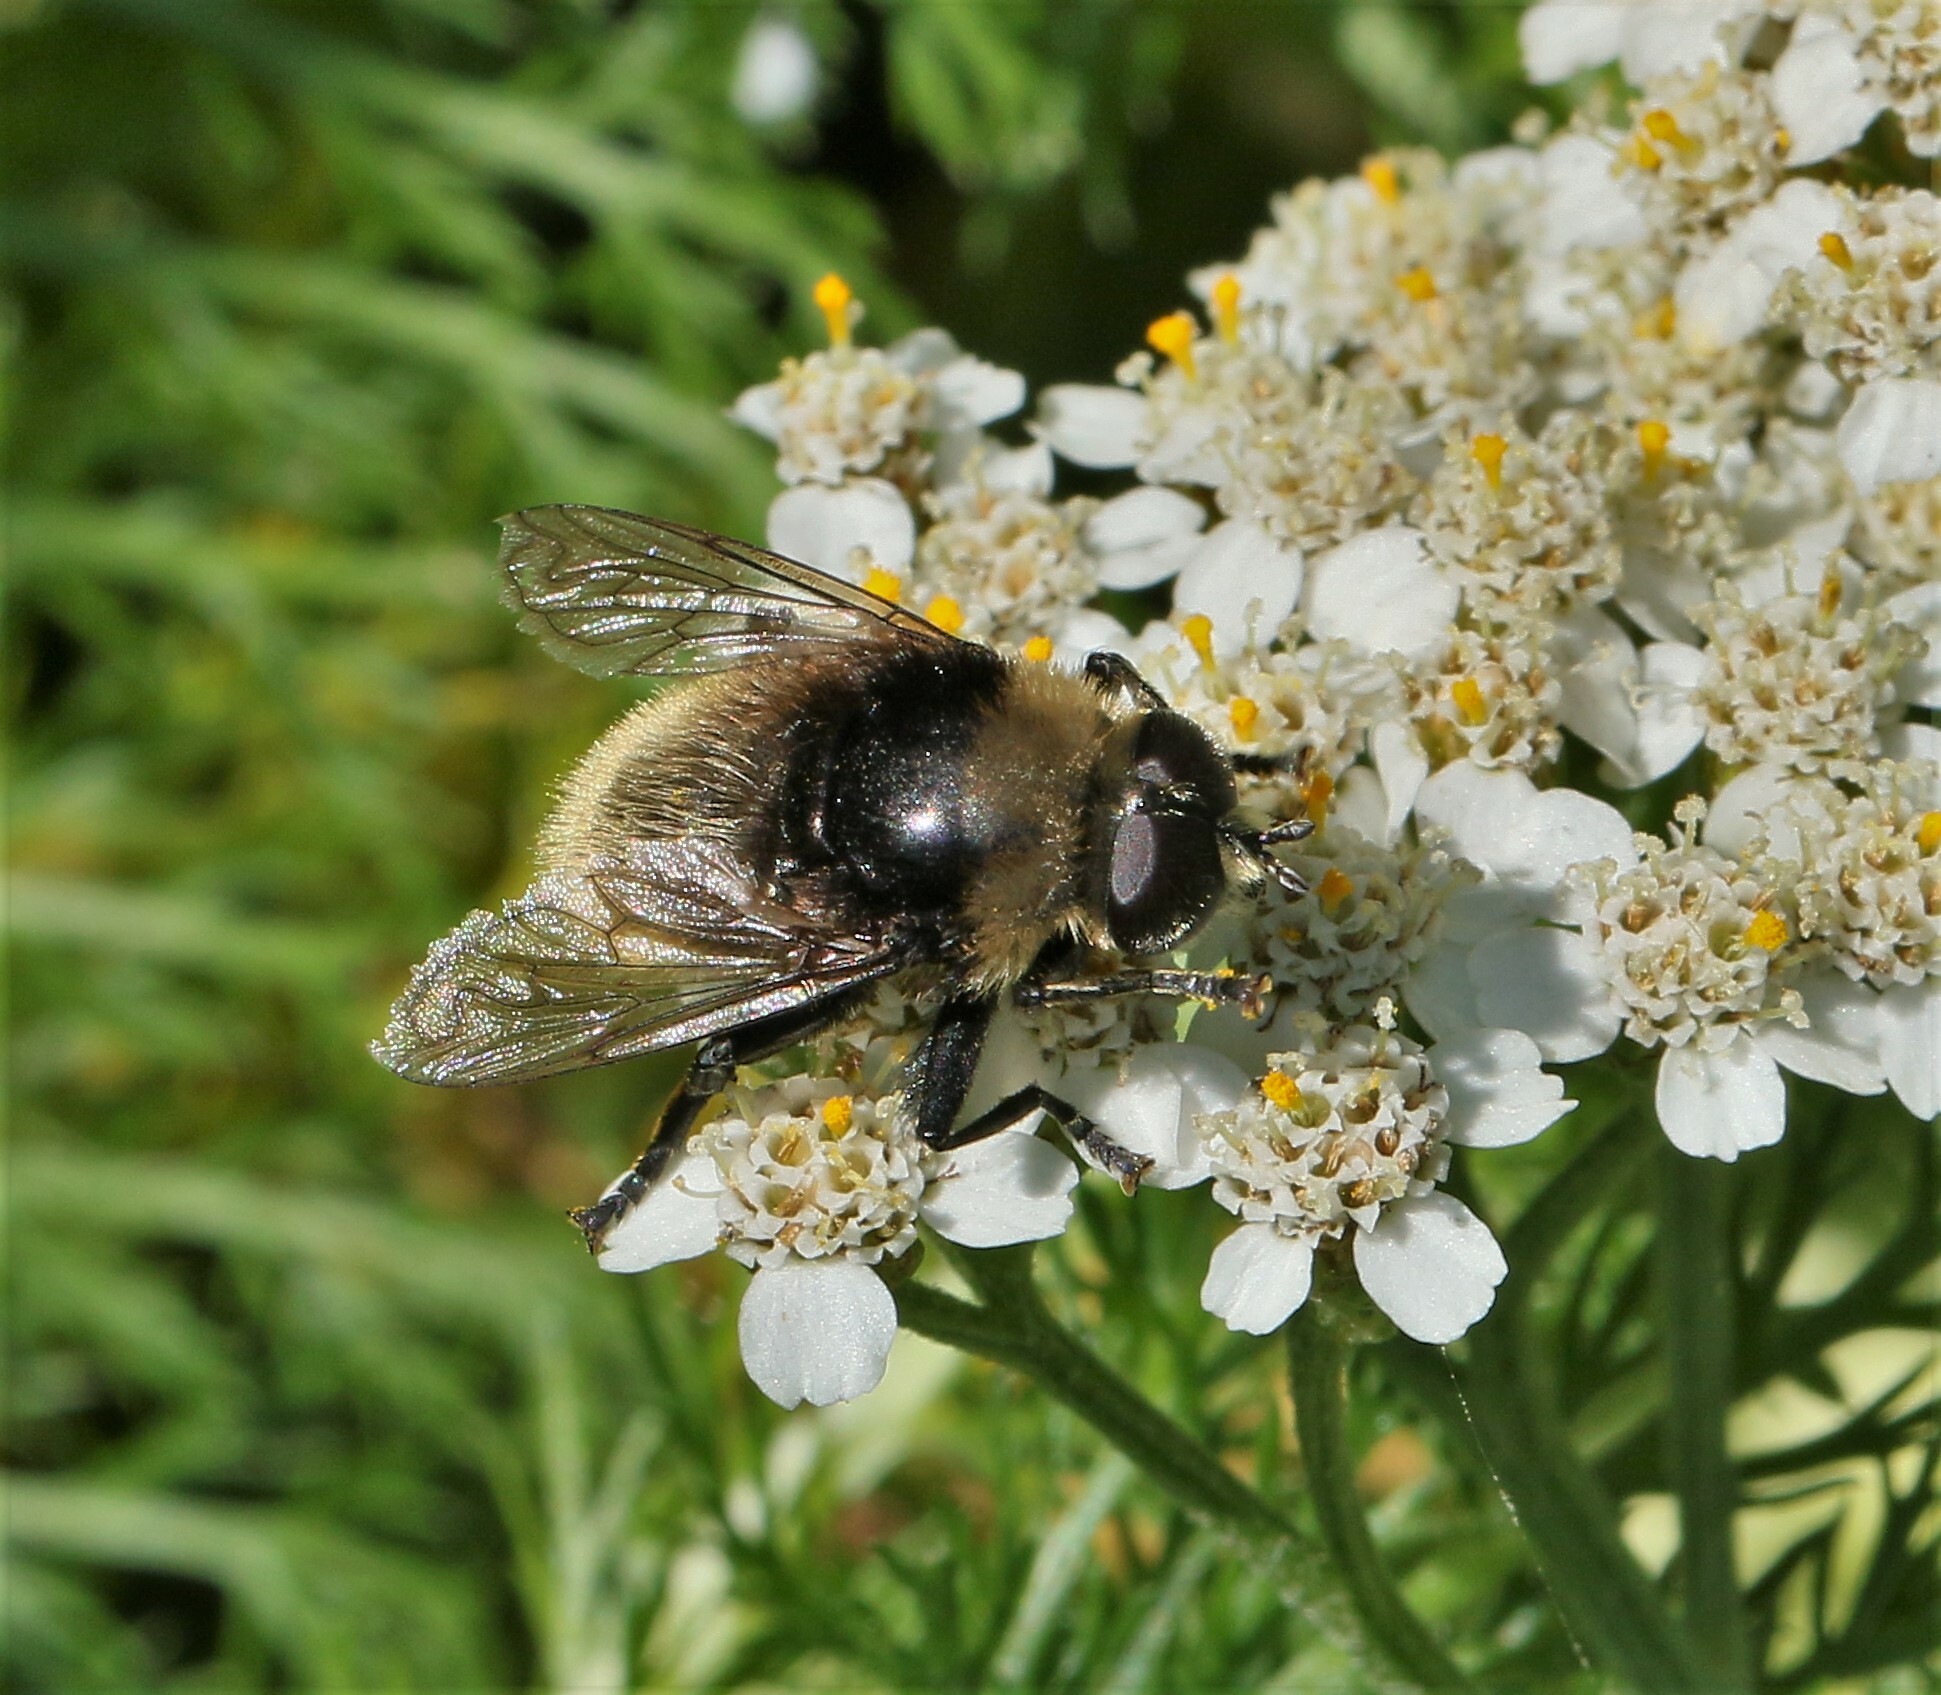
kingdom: Animalia
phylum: Arthropoda
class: Insecta
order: Diptera
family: Syrphidae
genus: Merodon
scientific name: Merodon equestris
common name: Greater bulb-fly
